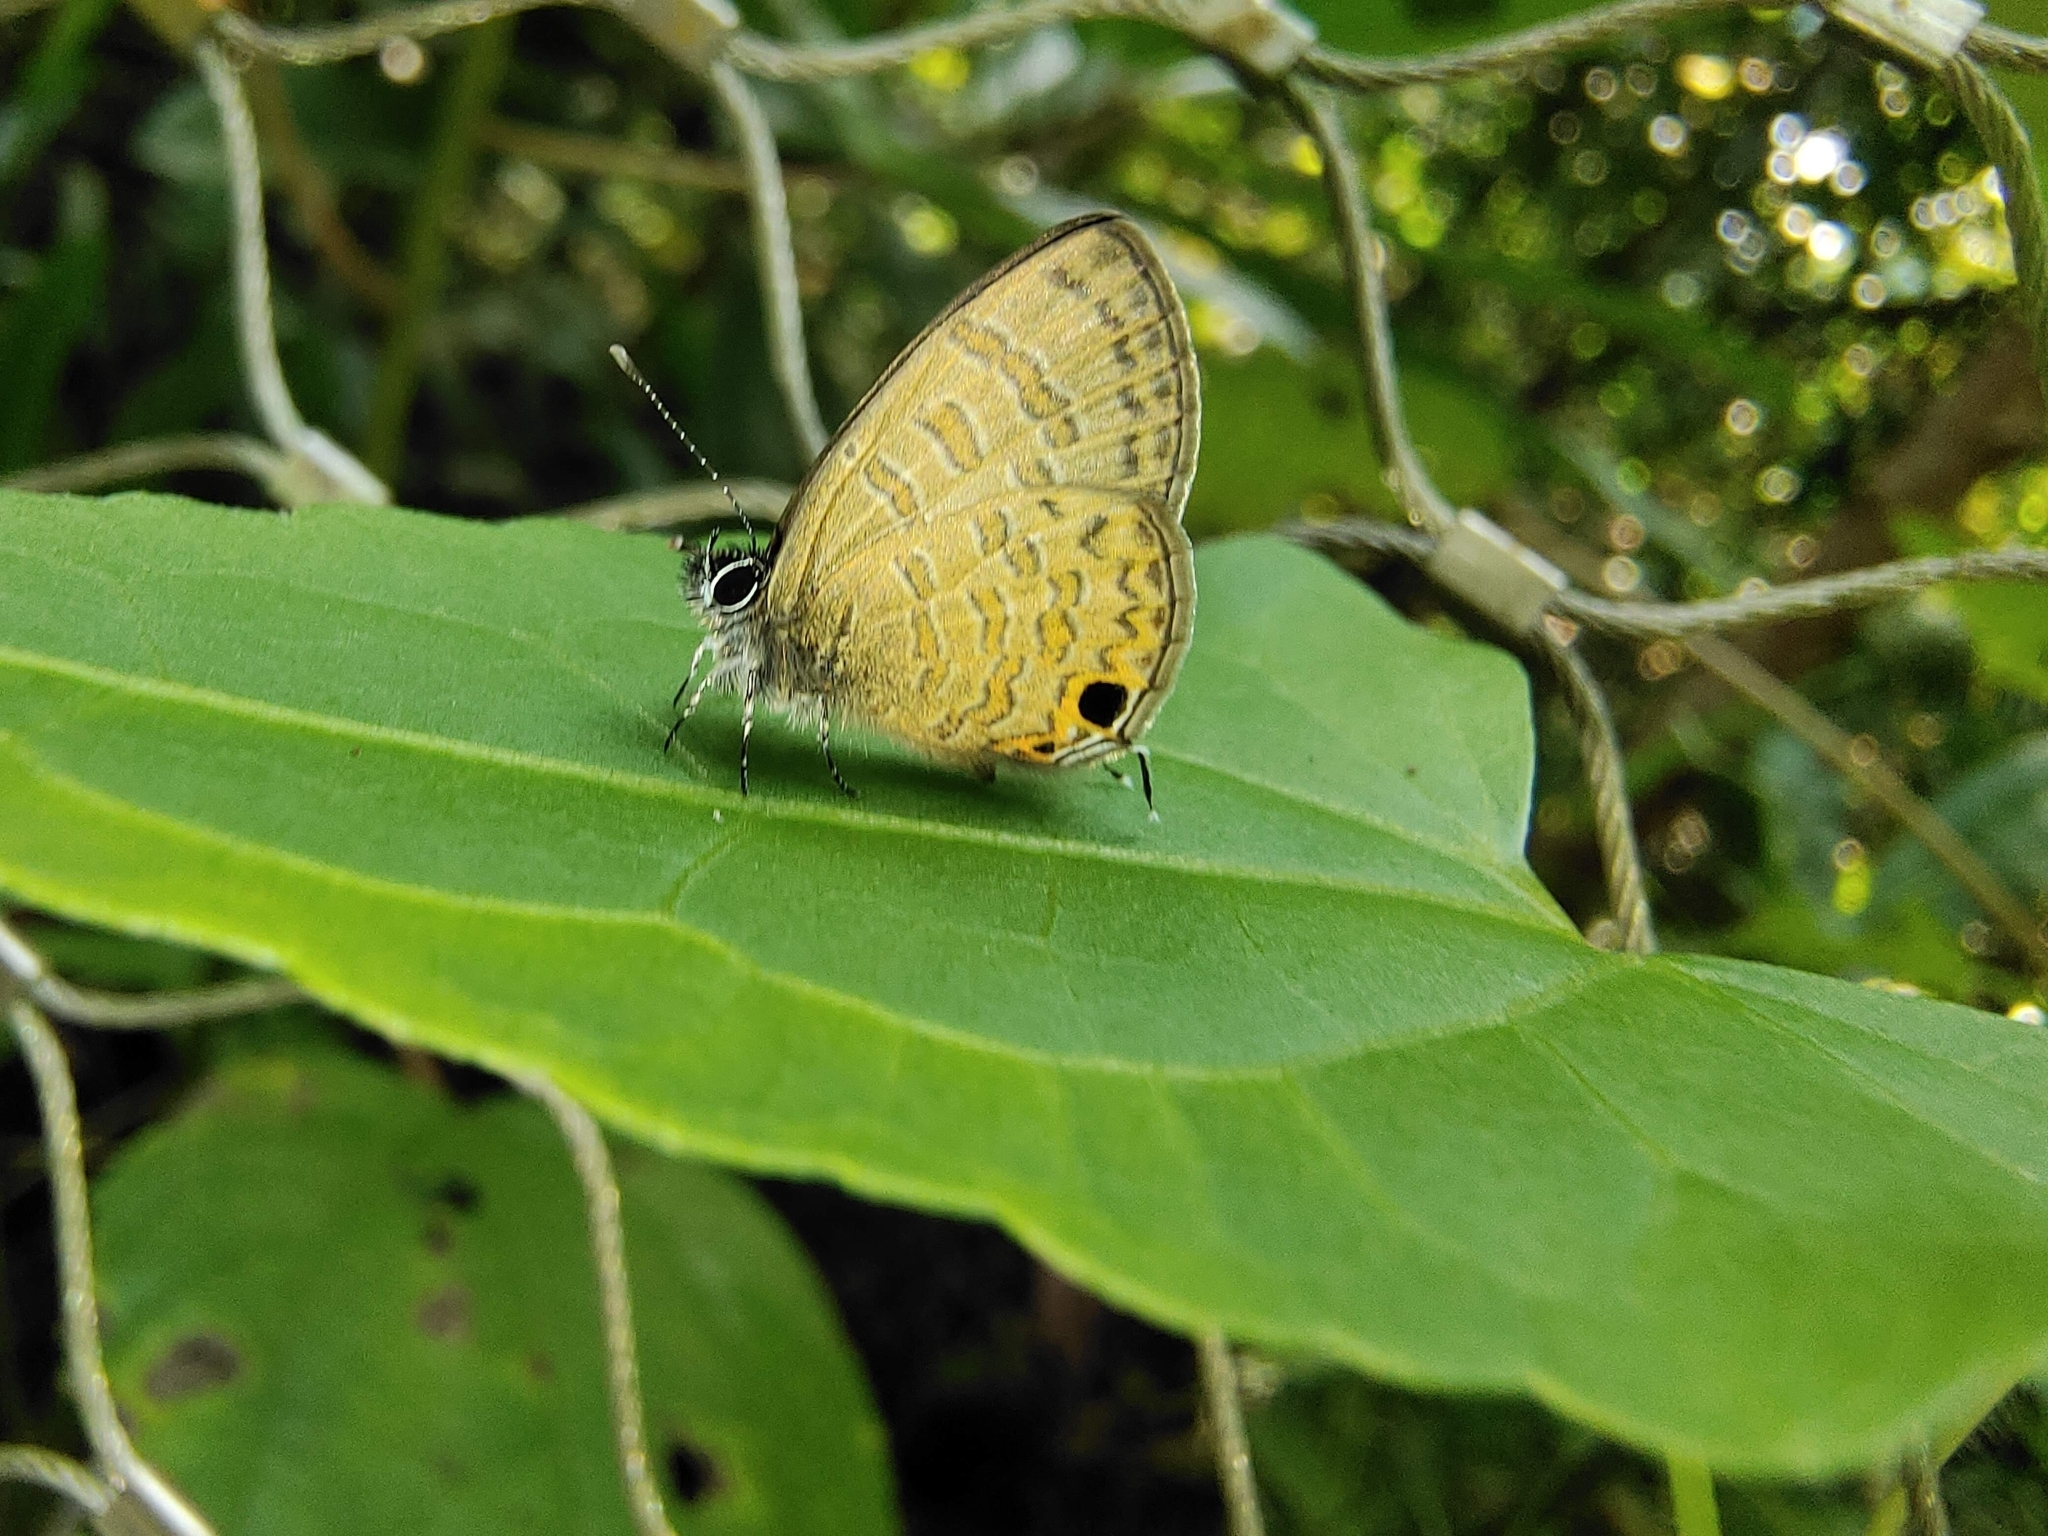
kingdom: Animalia
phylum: Arthropoda
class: Insecta
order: Lepidoptera
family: Lycaenidae
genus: Prosotas
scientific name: Prosotas nora
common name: Common line blue
